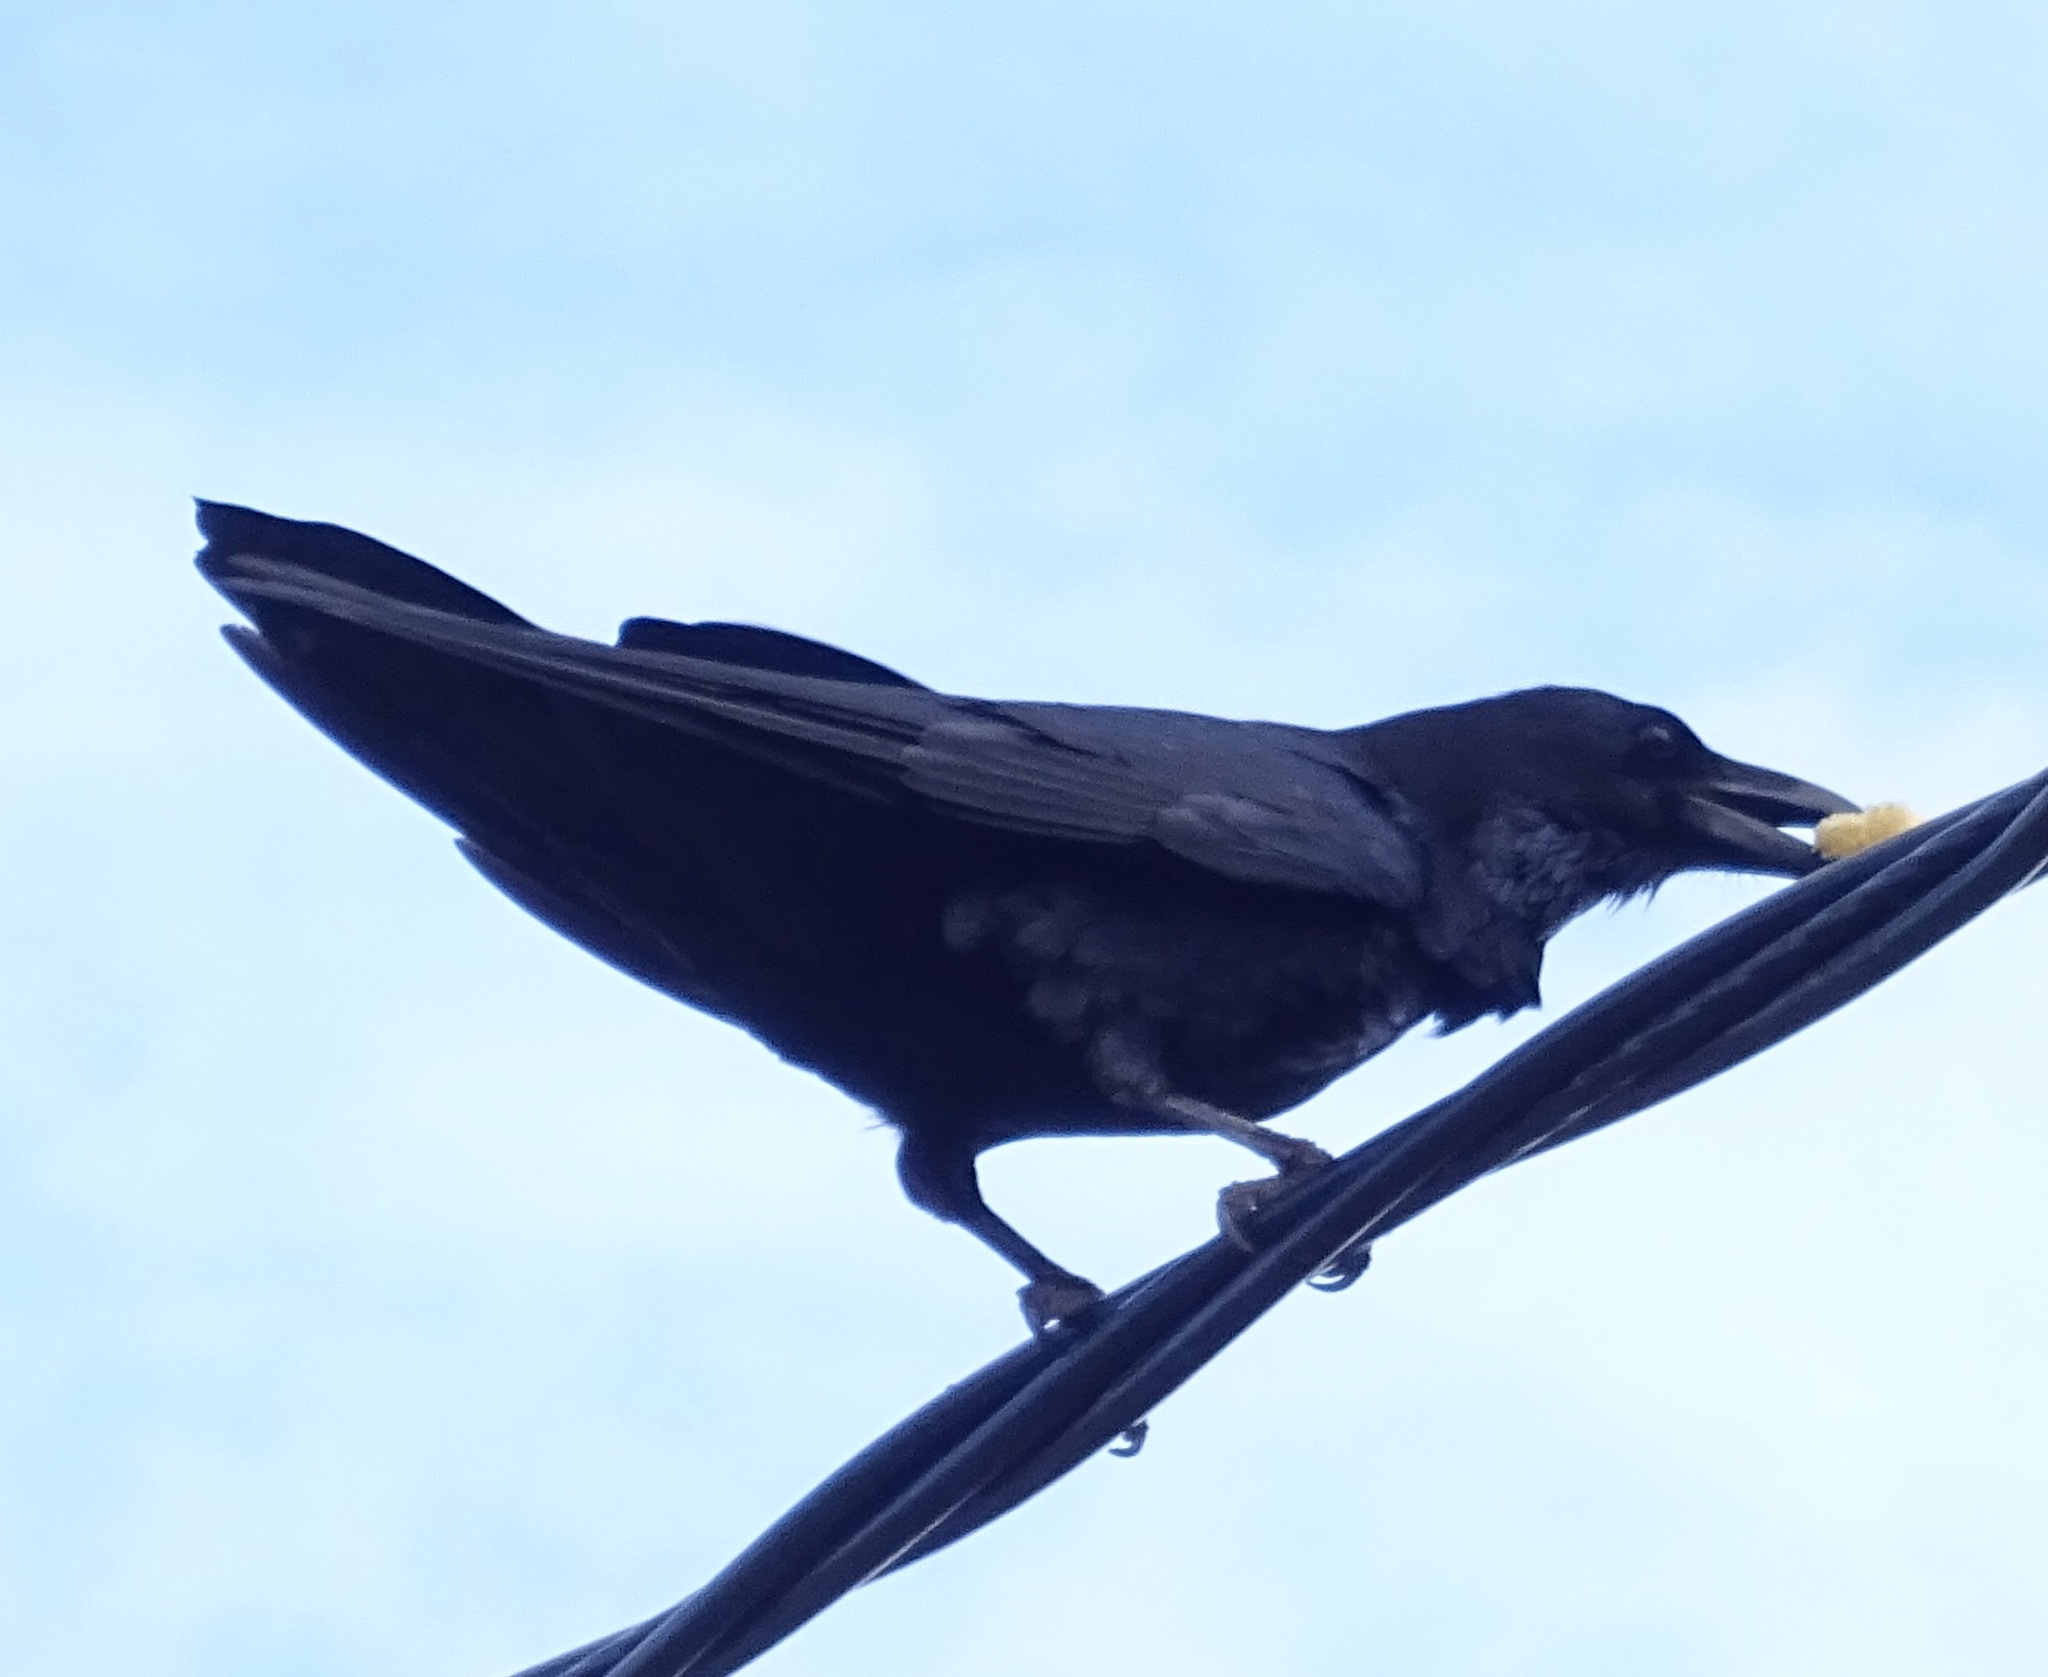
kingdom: Animalia
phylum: Chordata
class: Aves
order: Passeriformes
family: Corvidae
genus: Corvus
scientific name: Corvus corax
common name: Common raven
